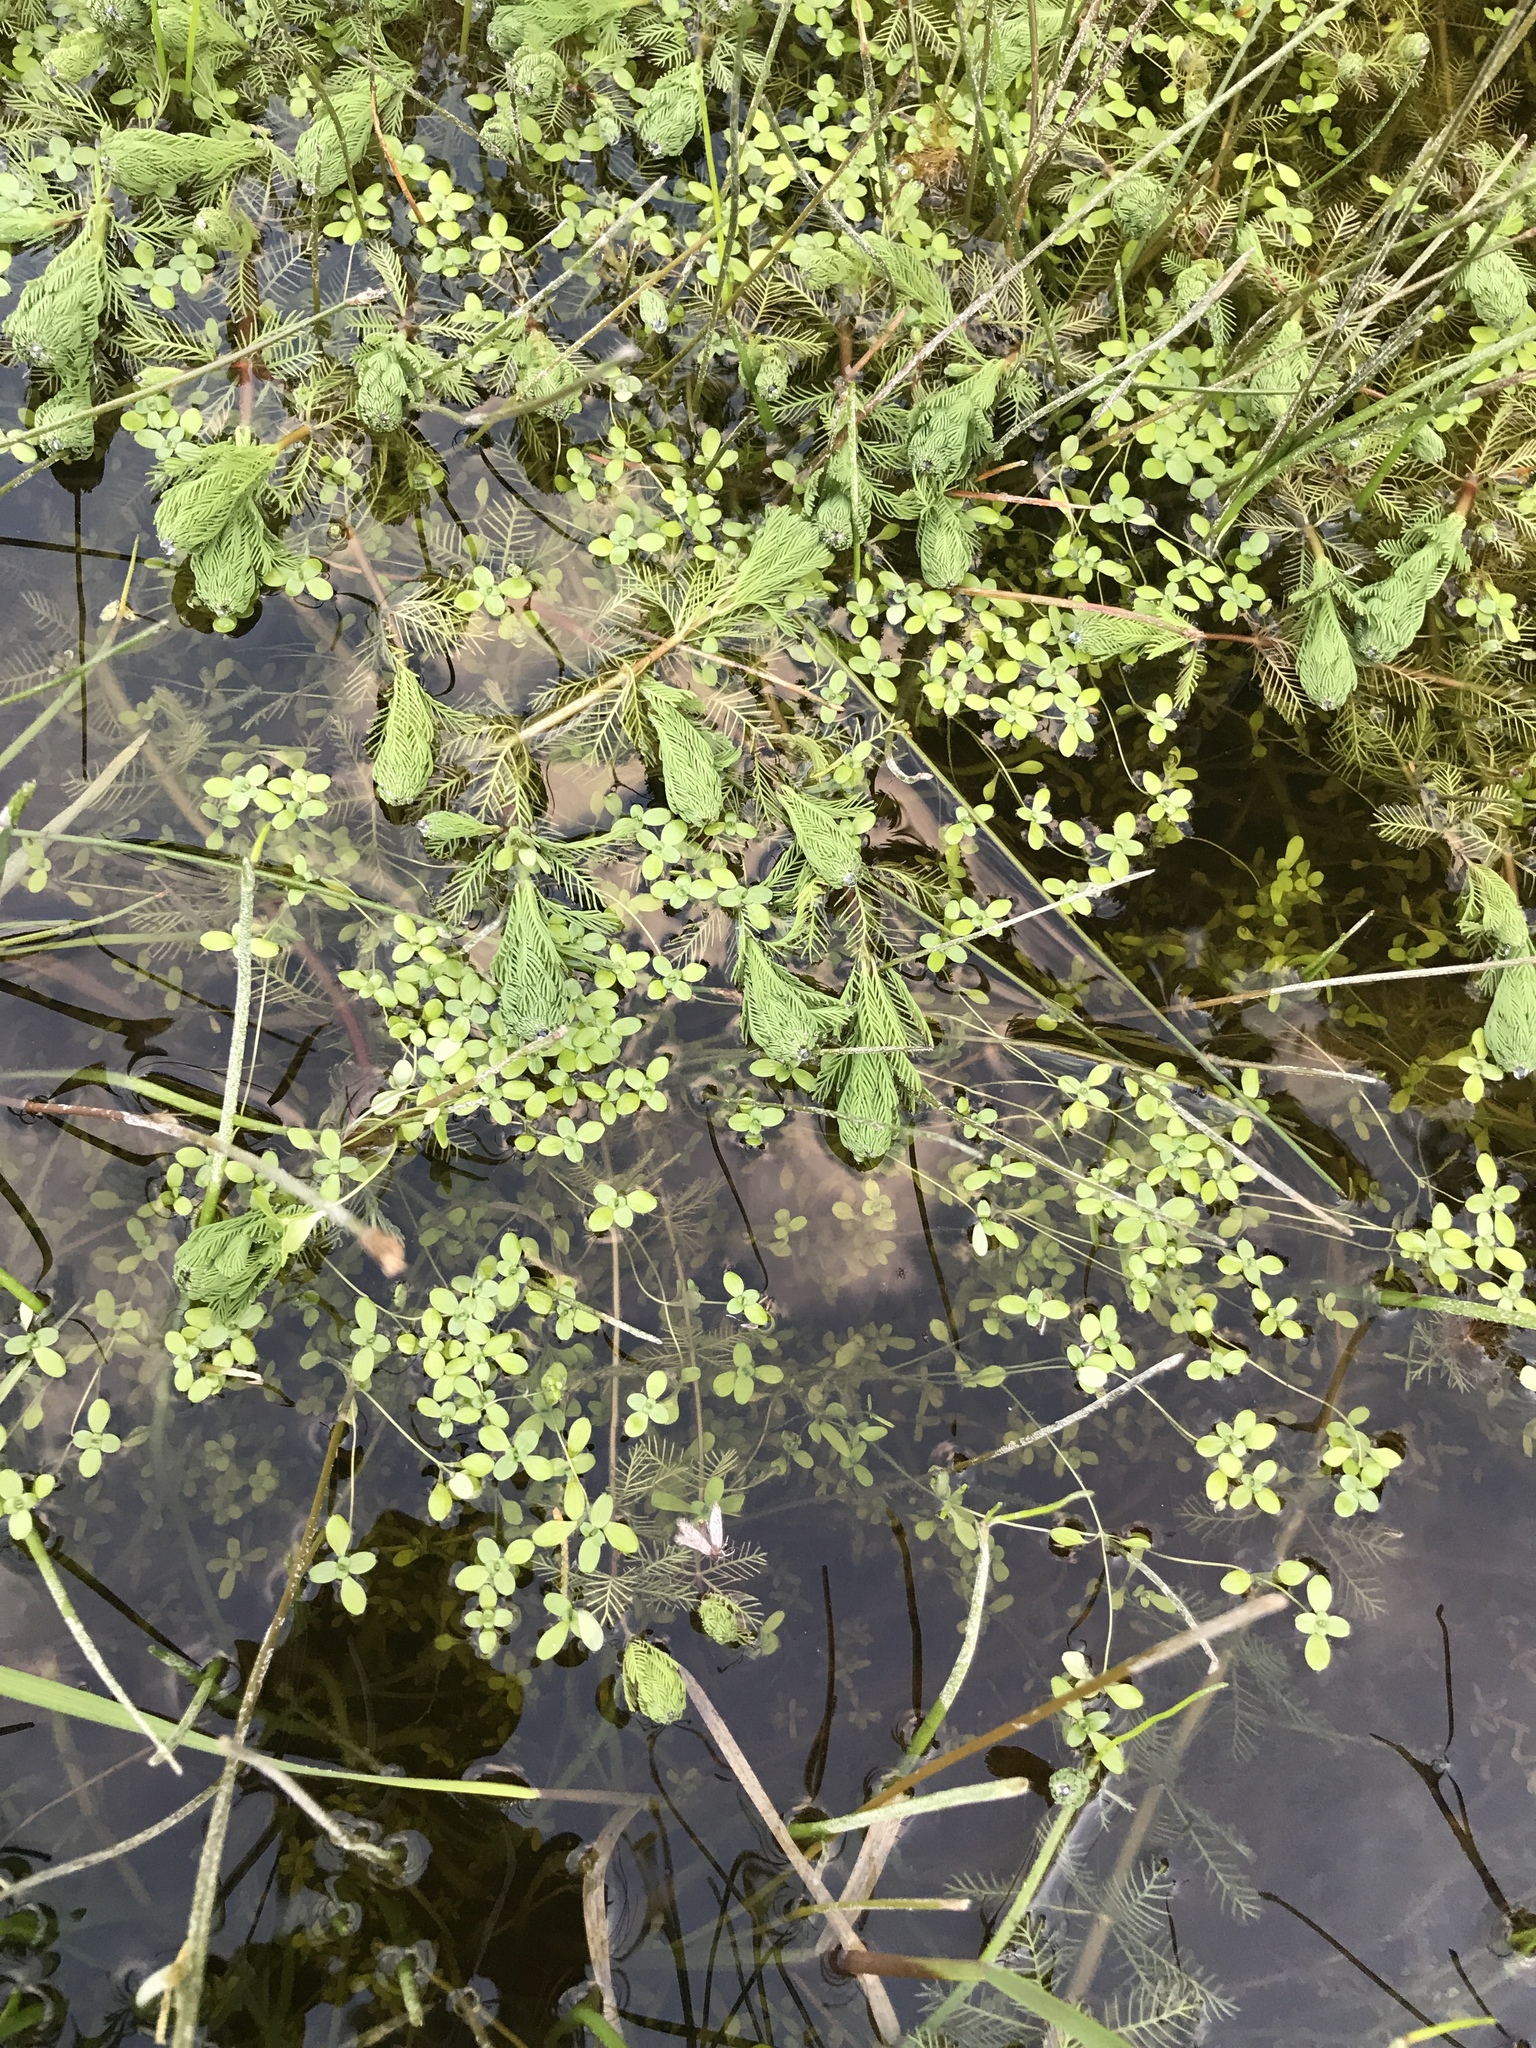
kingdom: Plantae
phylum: Tracheophyta
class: Magnoliopsida
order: Saxifragales
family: Haloragaceae
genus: Myriophyllum
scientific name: Myriophyllum aquaticum
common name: Parrot's feather
